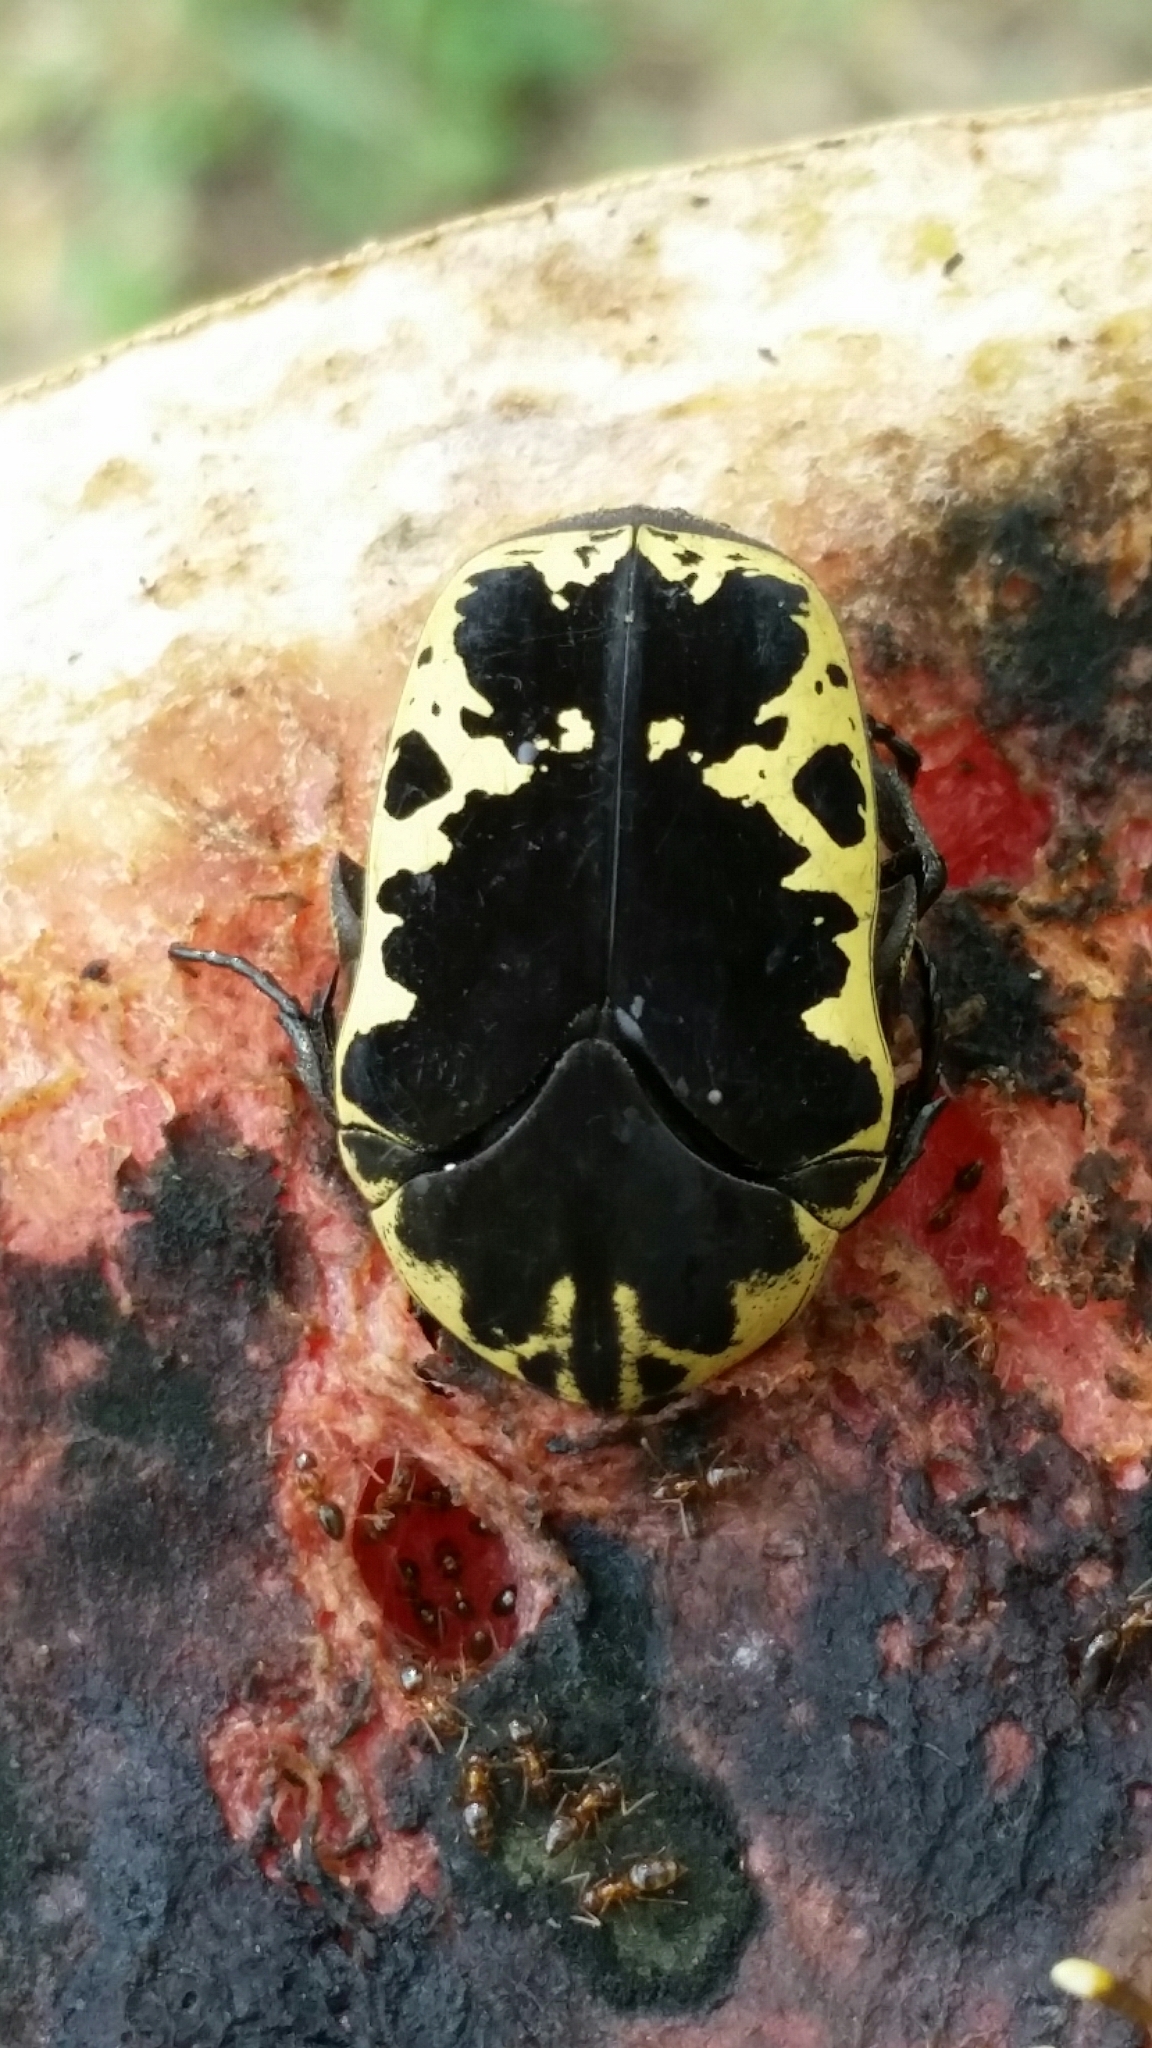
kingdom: Animalia
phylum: Arthropoda
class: Insecta
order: Coleoptera
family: Scarabaeidae
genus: Gymnetis
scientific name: Gymnetis thula
